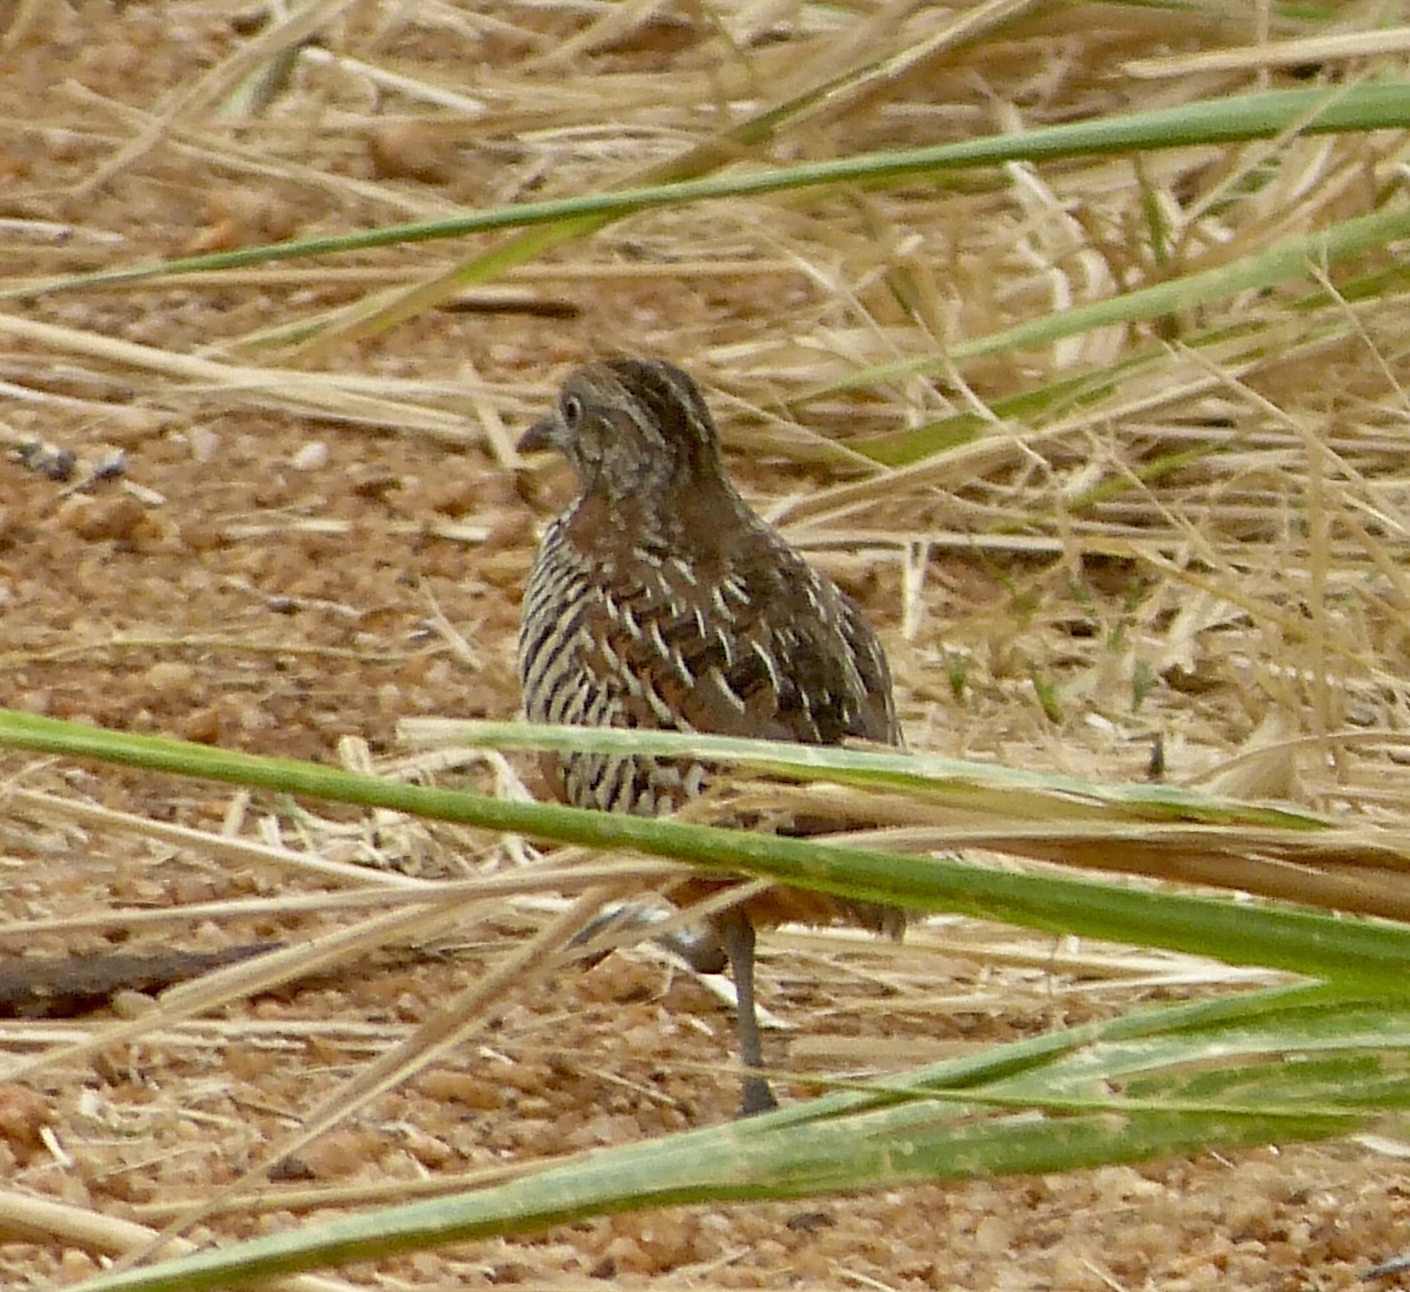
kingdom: Animalia
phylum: Chordata
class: Aves
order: Charadriiformes
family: Turnicidae
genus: Turnix
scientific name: Turnix suscitator
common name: Barred buttonquail
